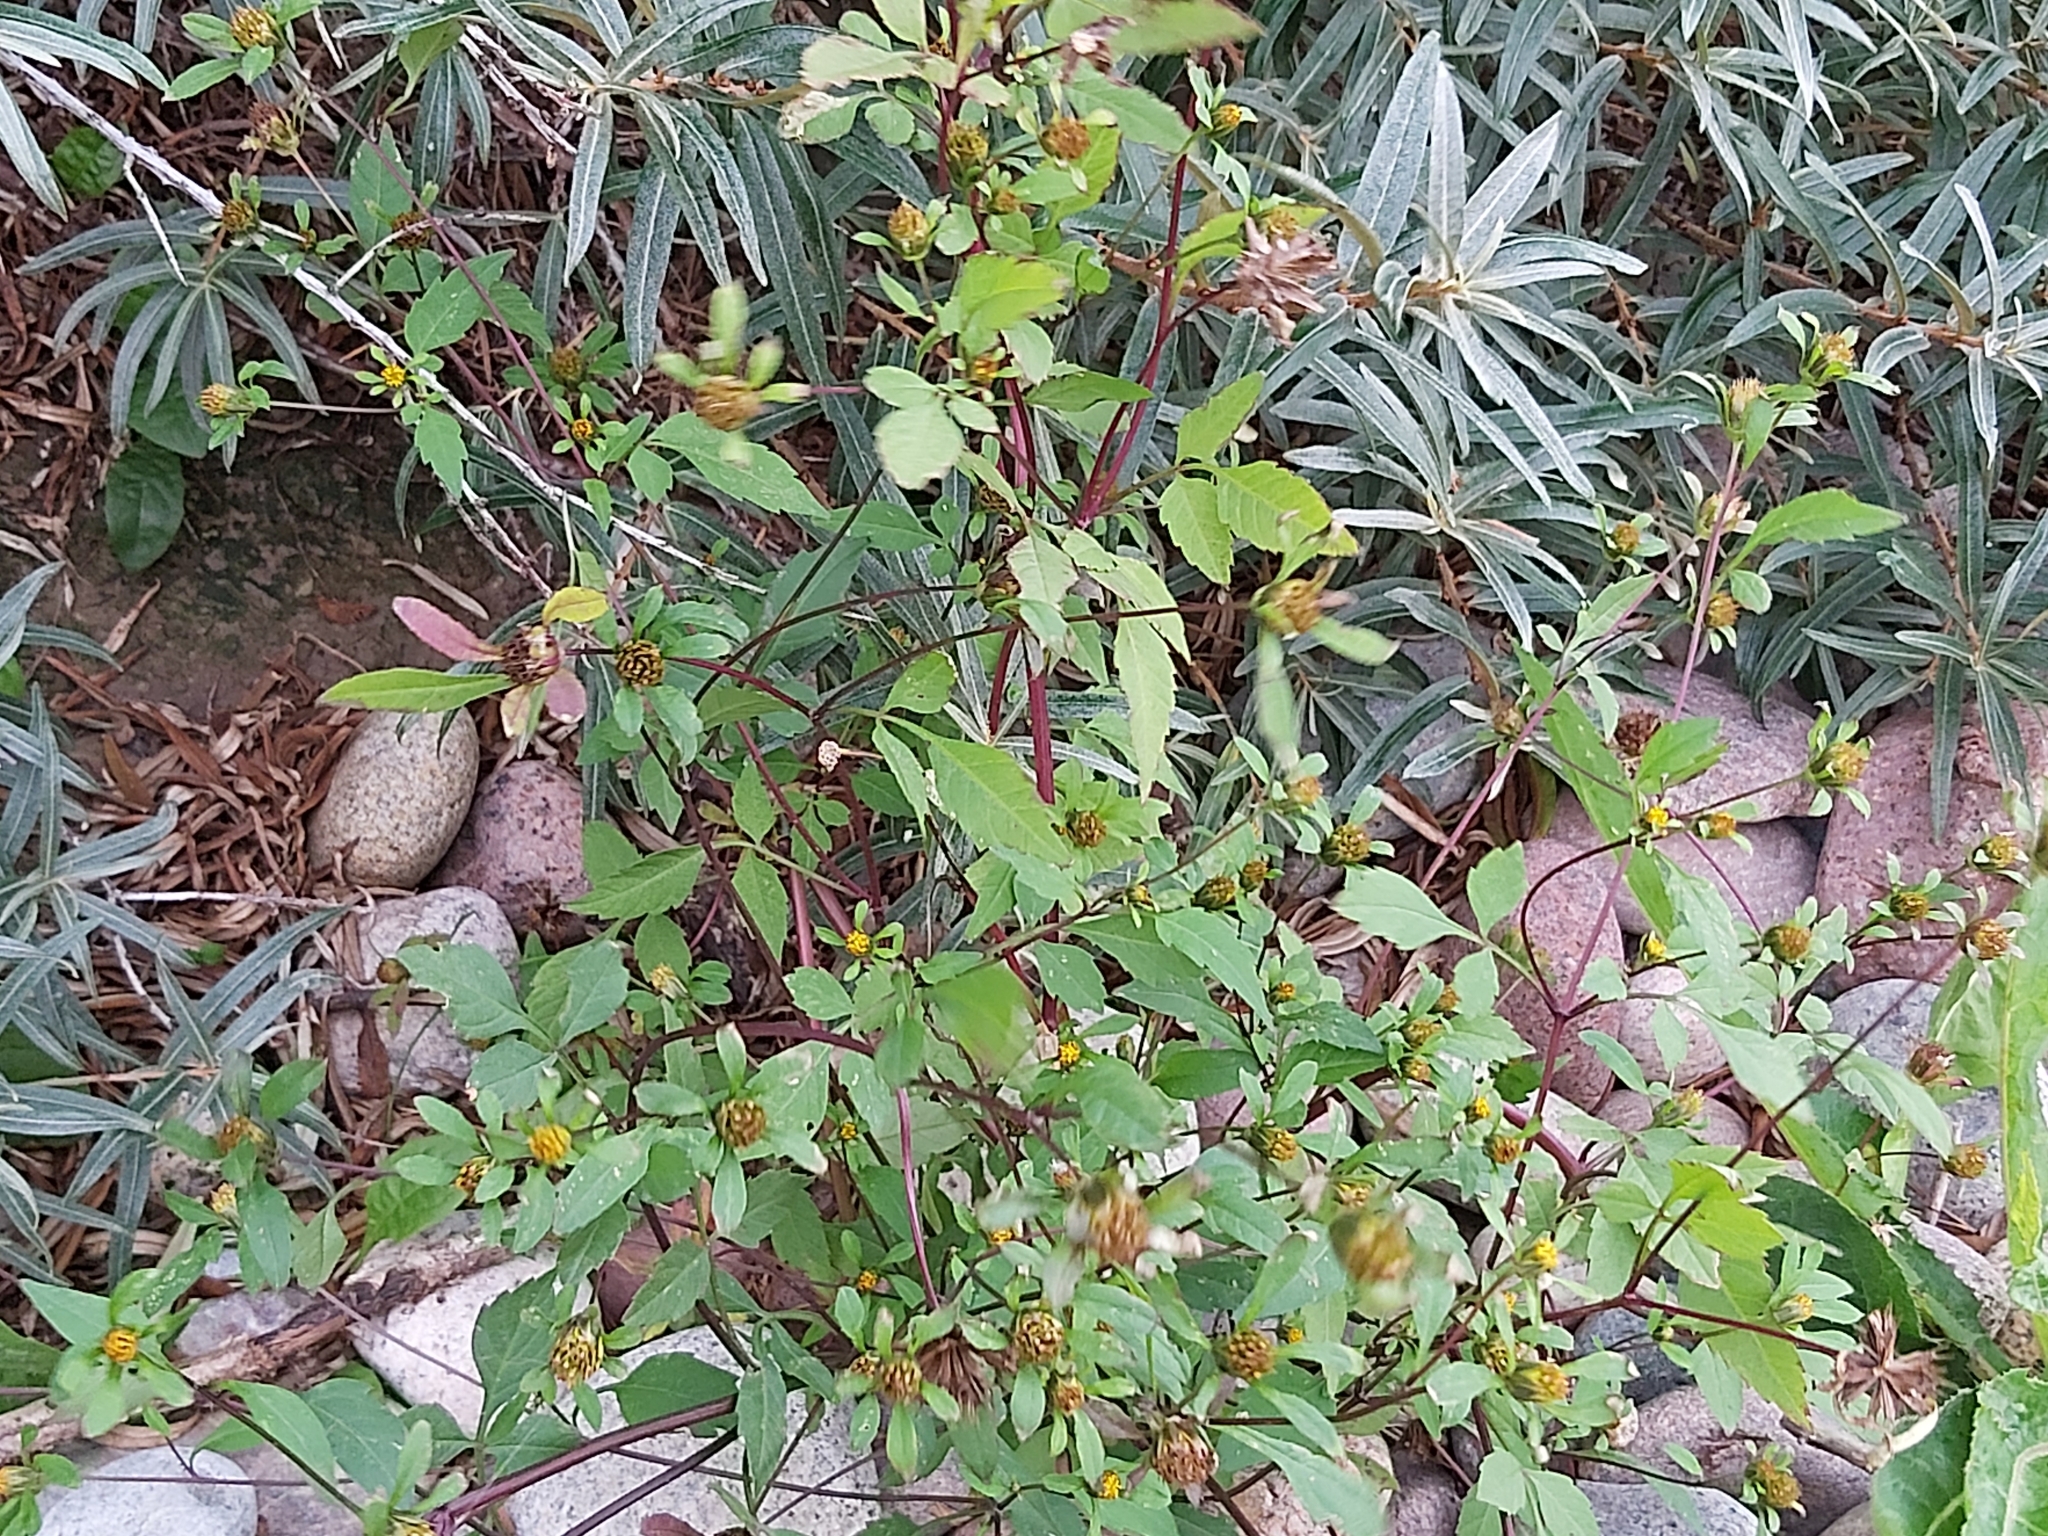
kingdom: Plantae
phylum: Tracheophyta
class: Magnoliopsida
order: Asterales
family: Asteraceae
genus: Bidens
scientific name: Bidens frondosa
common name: Beggarticks
